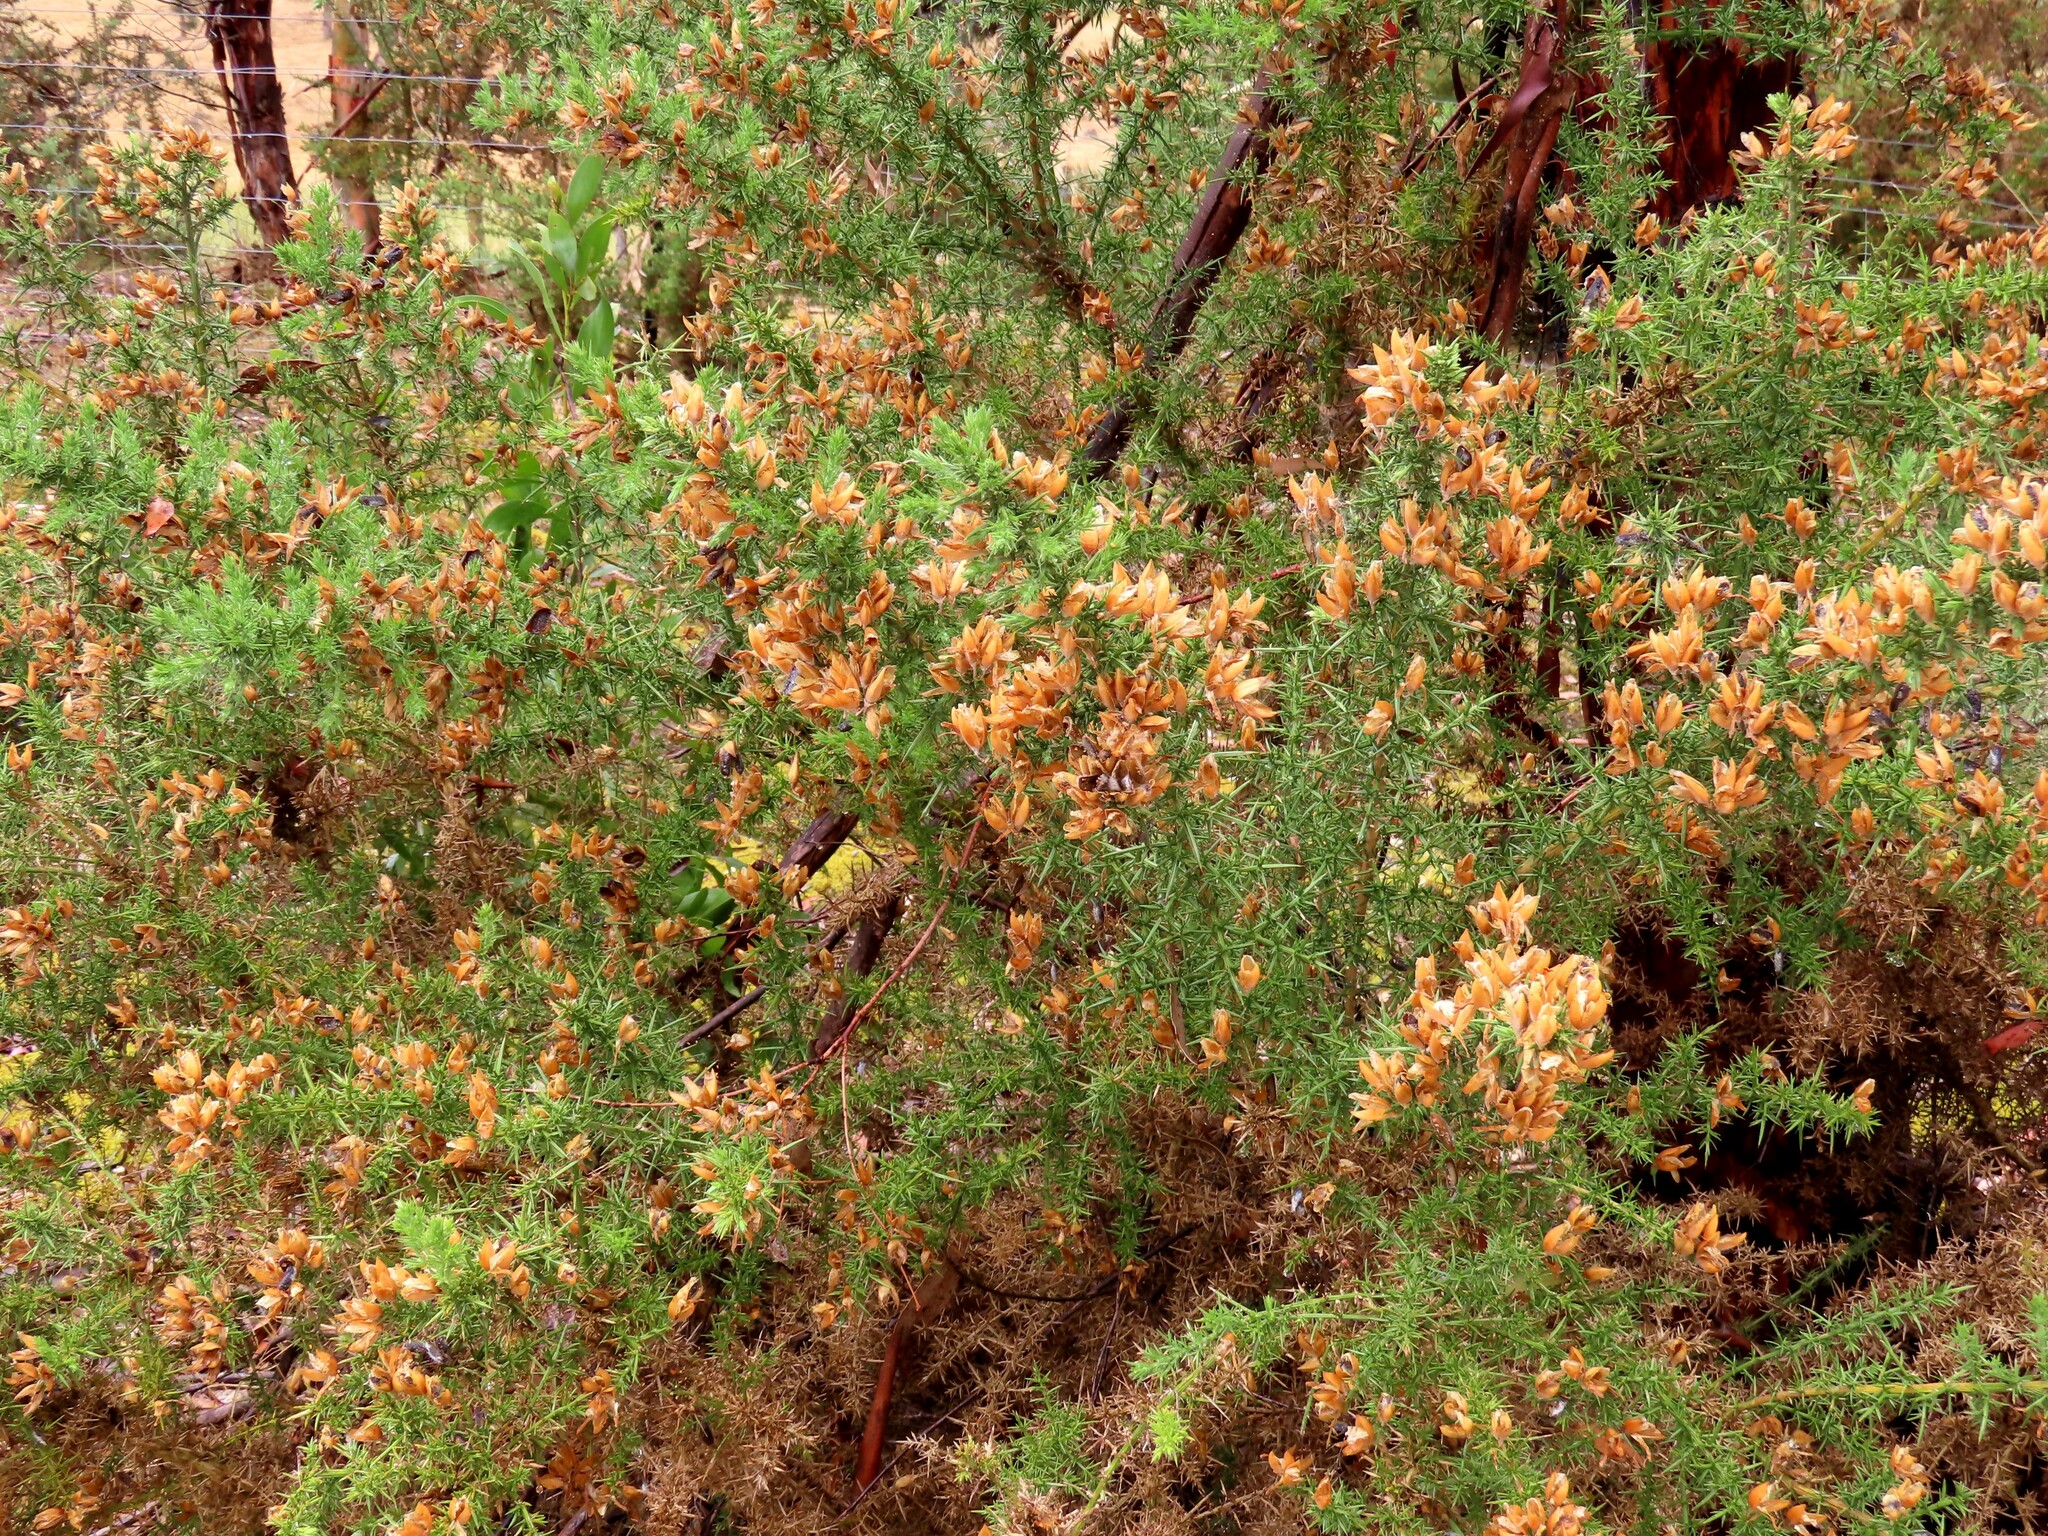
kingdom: Plantae
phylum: Tracheophyta
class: Magnoliopsida
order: Fabales
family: Fabaceae
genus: Ulex
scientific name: Ulex europaeus
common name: Common gorse
